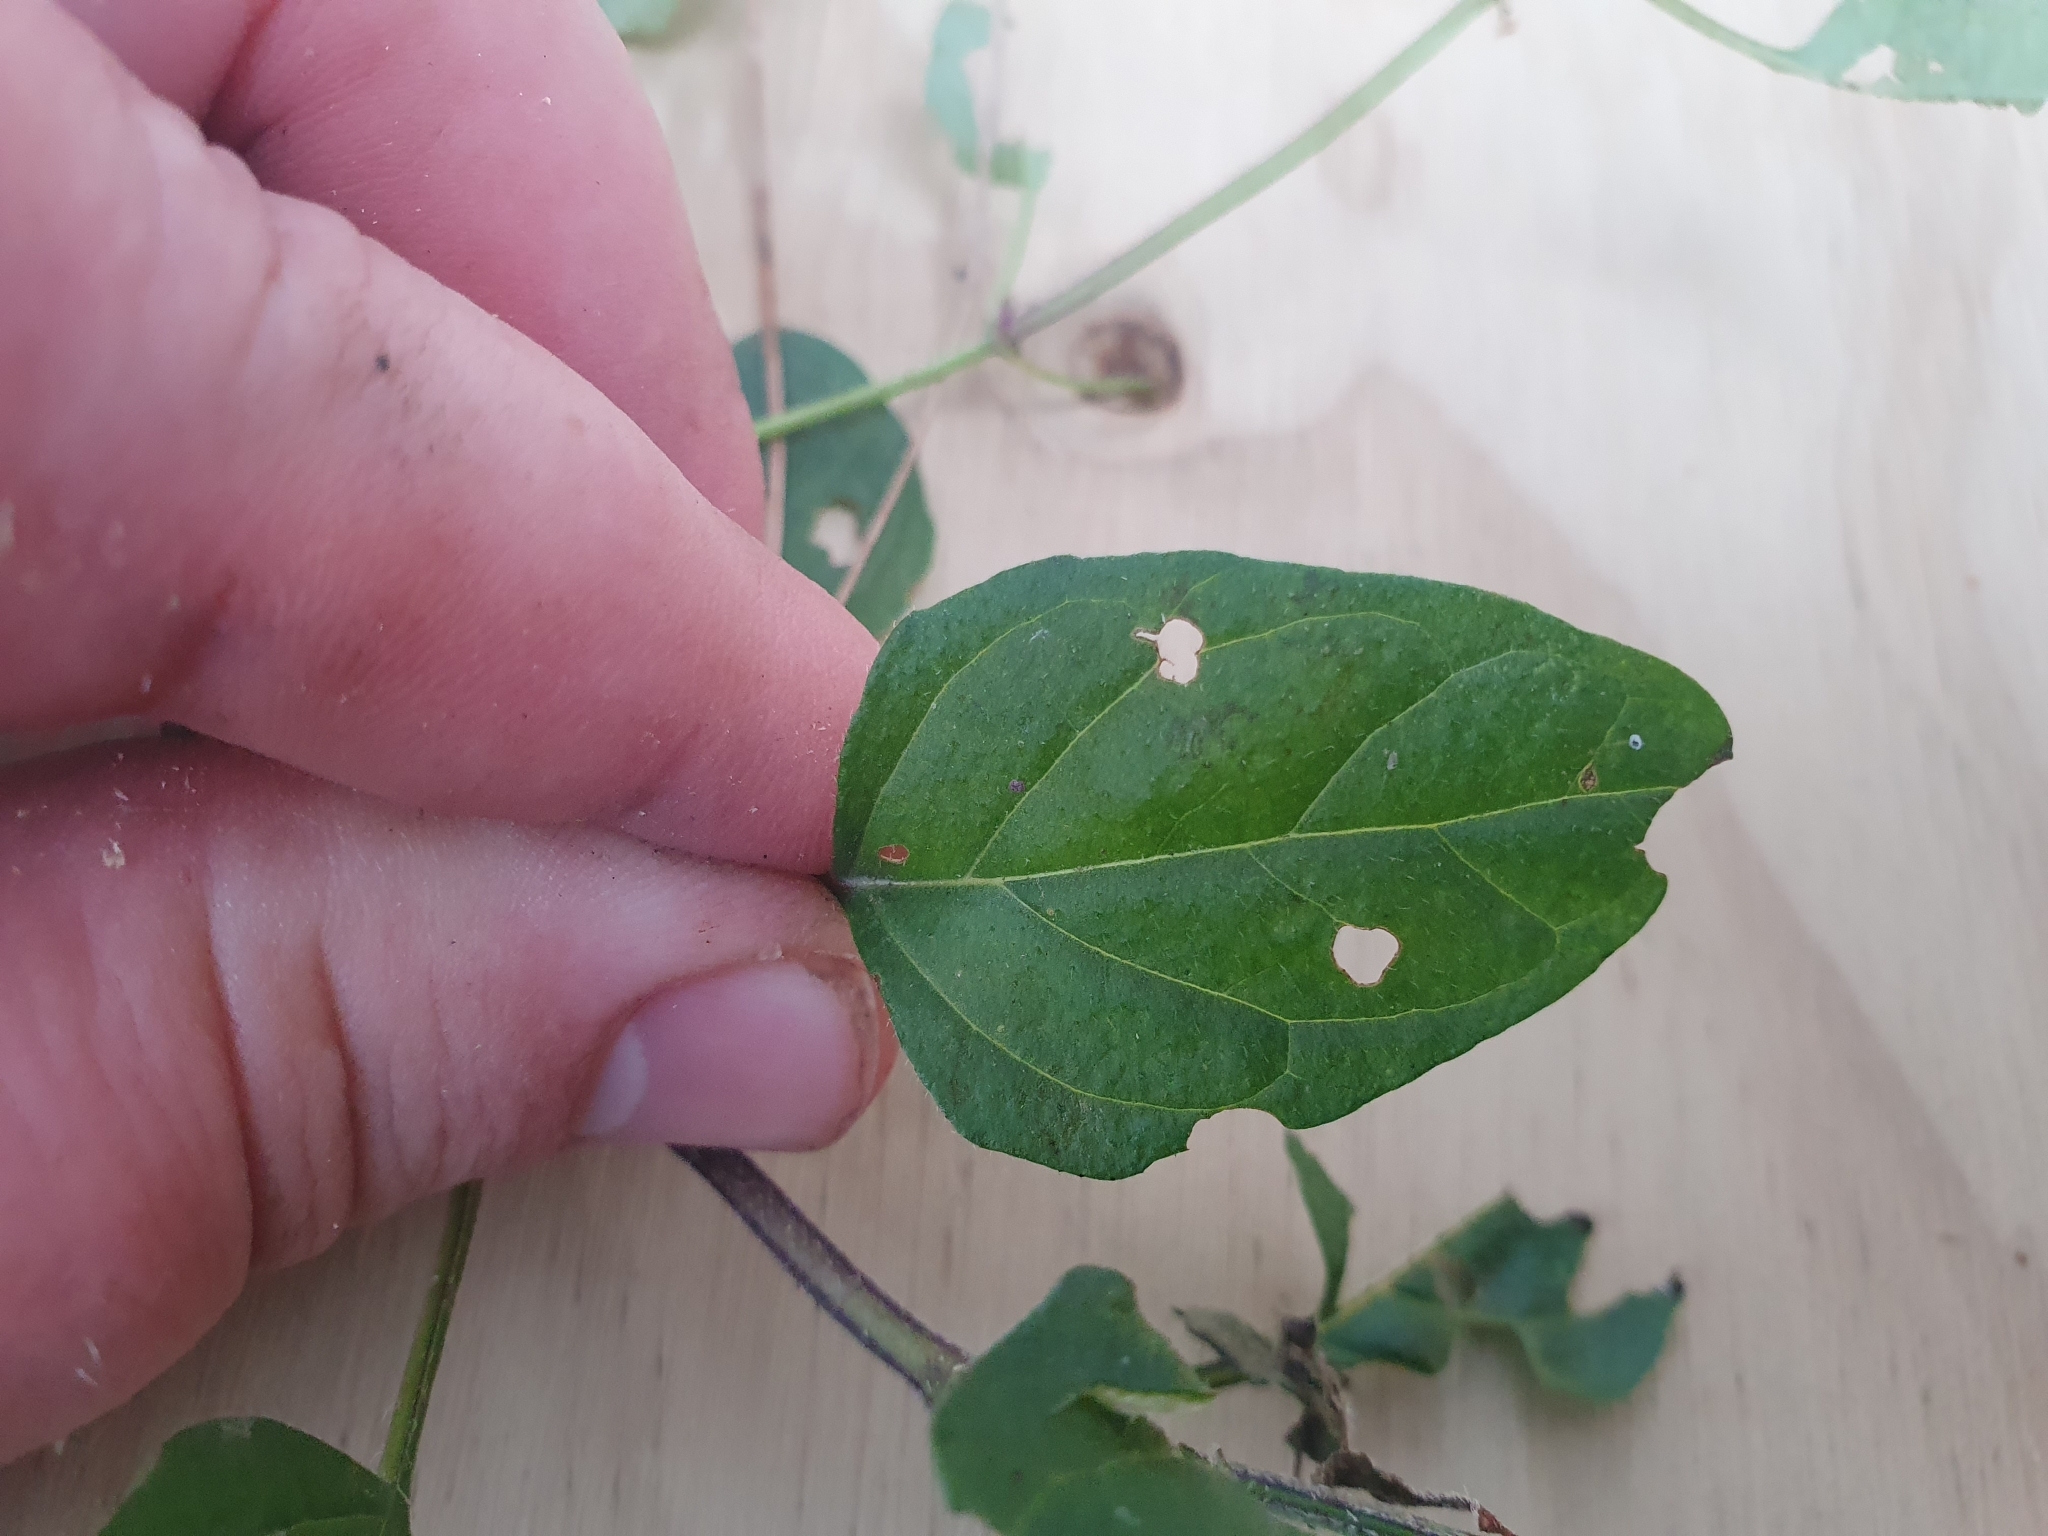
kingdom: Plantae
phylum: Tracheophyta
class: Magnoliopsida
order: Lamiales
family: Lamiaceae
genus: Prunella
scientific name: Prunella vulgaris
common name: Heal-all
